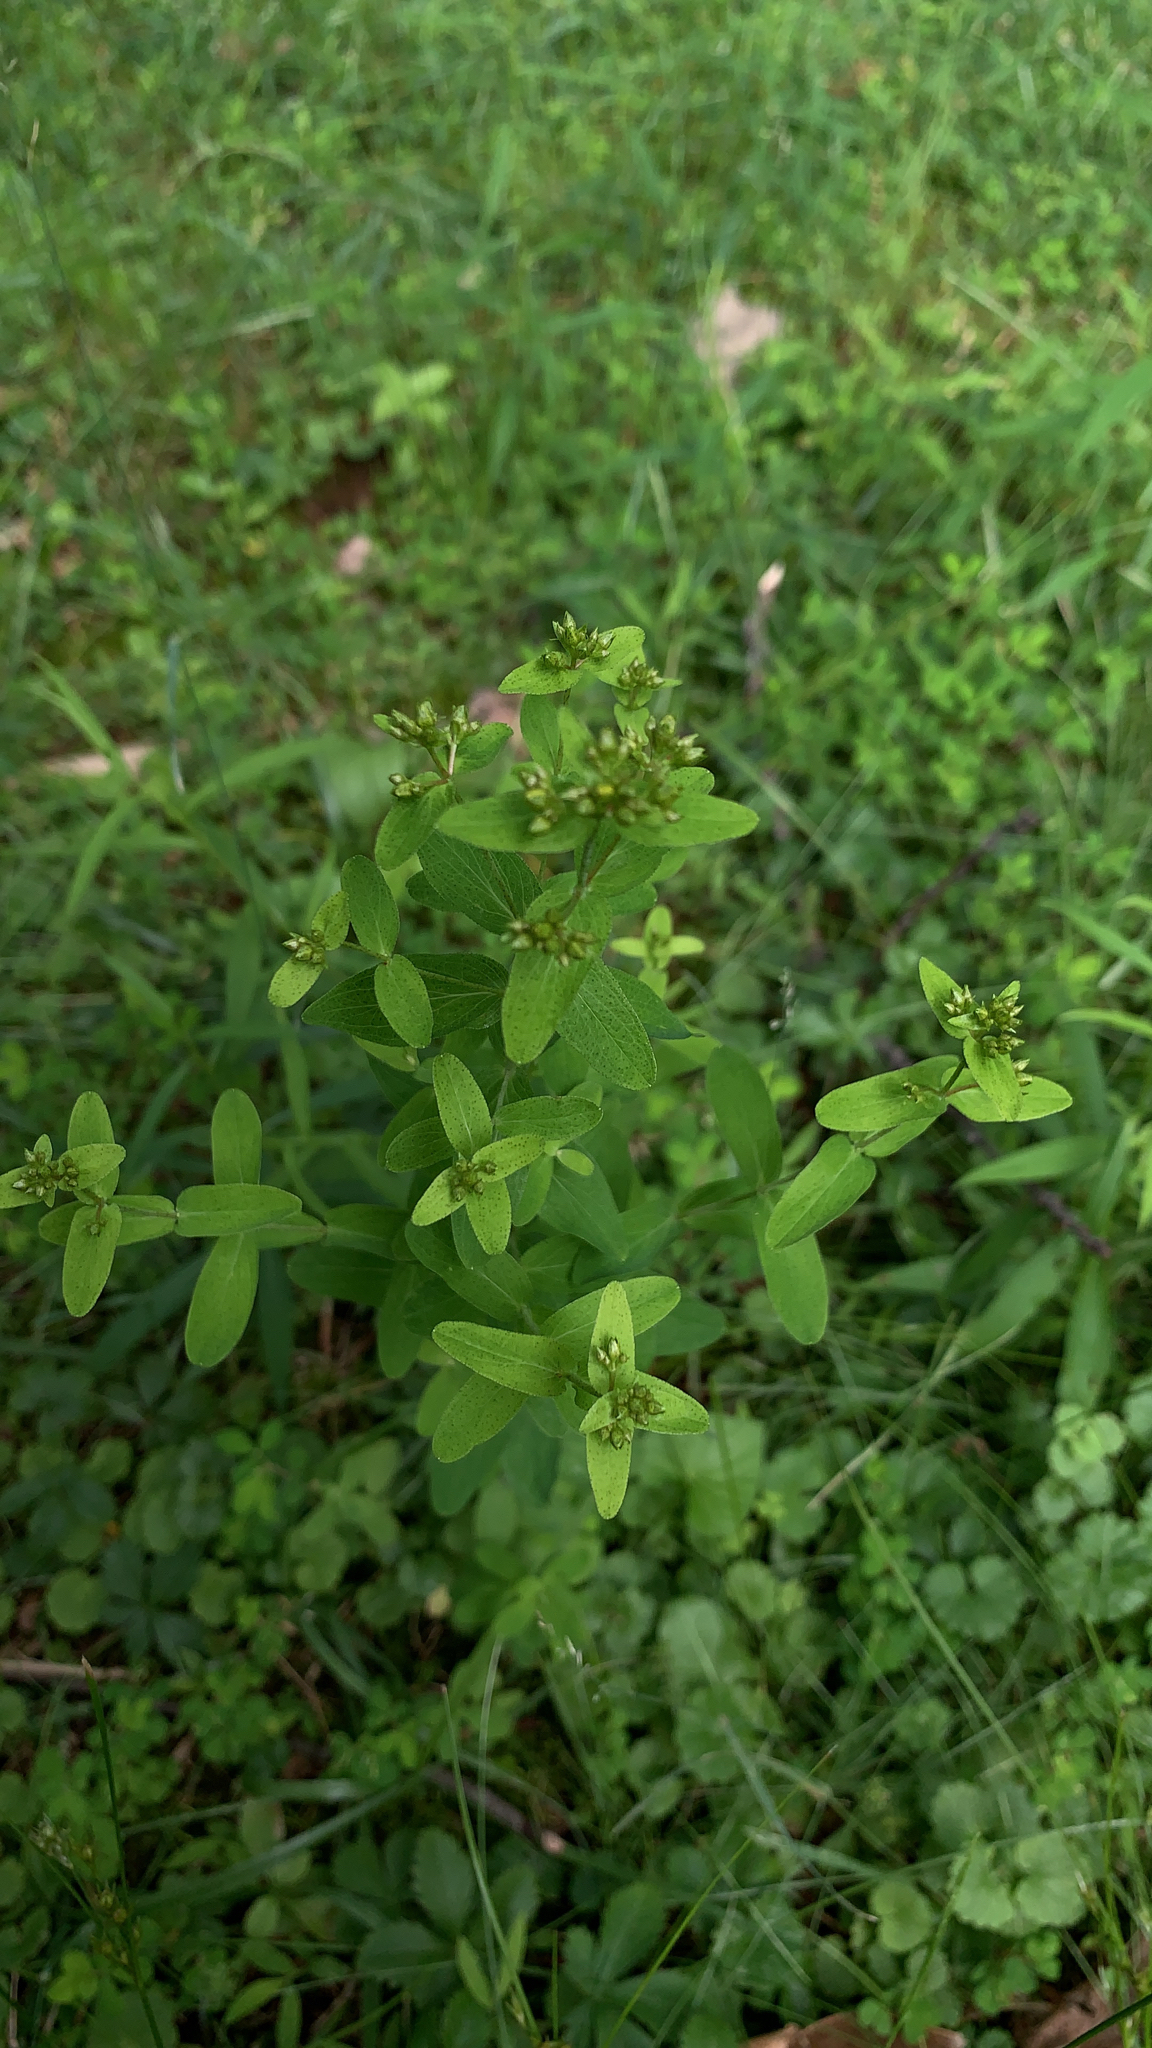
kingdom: Plantae
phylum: Tracheophyta
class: Magnoliopsida
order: Malpighiales
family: Hypericaceae
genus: Hypericum
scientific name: Hypericum punctatum
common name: Spotted st. john's-wort
